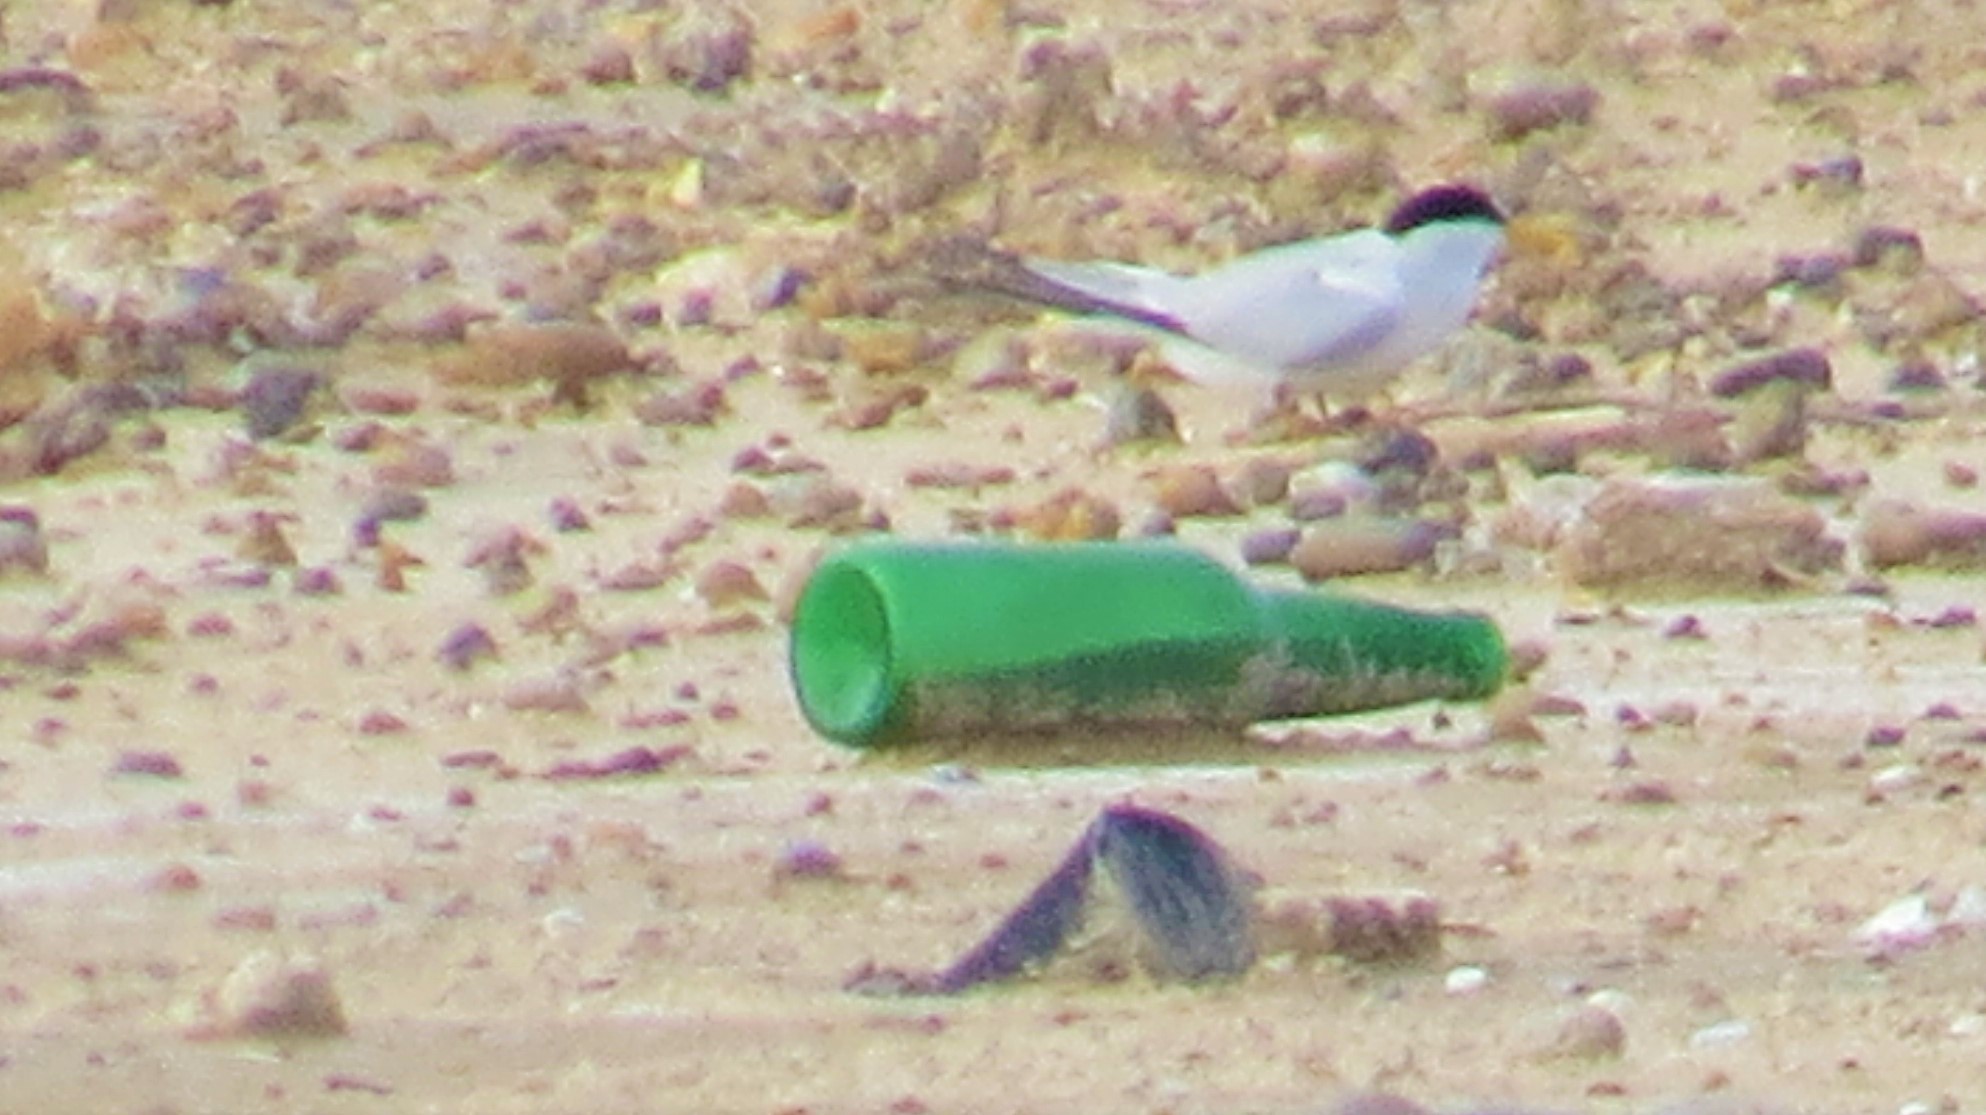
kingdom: Animalia
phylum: Chordata
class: Aves
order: Charadriiformes
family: Laridae
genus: Sternula
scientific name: Sternula antillarum
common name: Least tern
